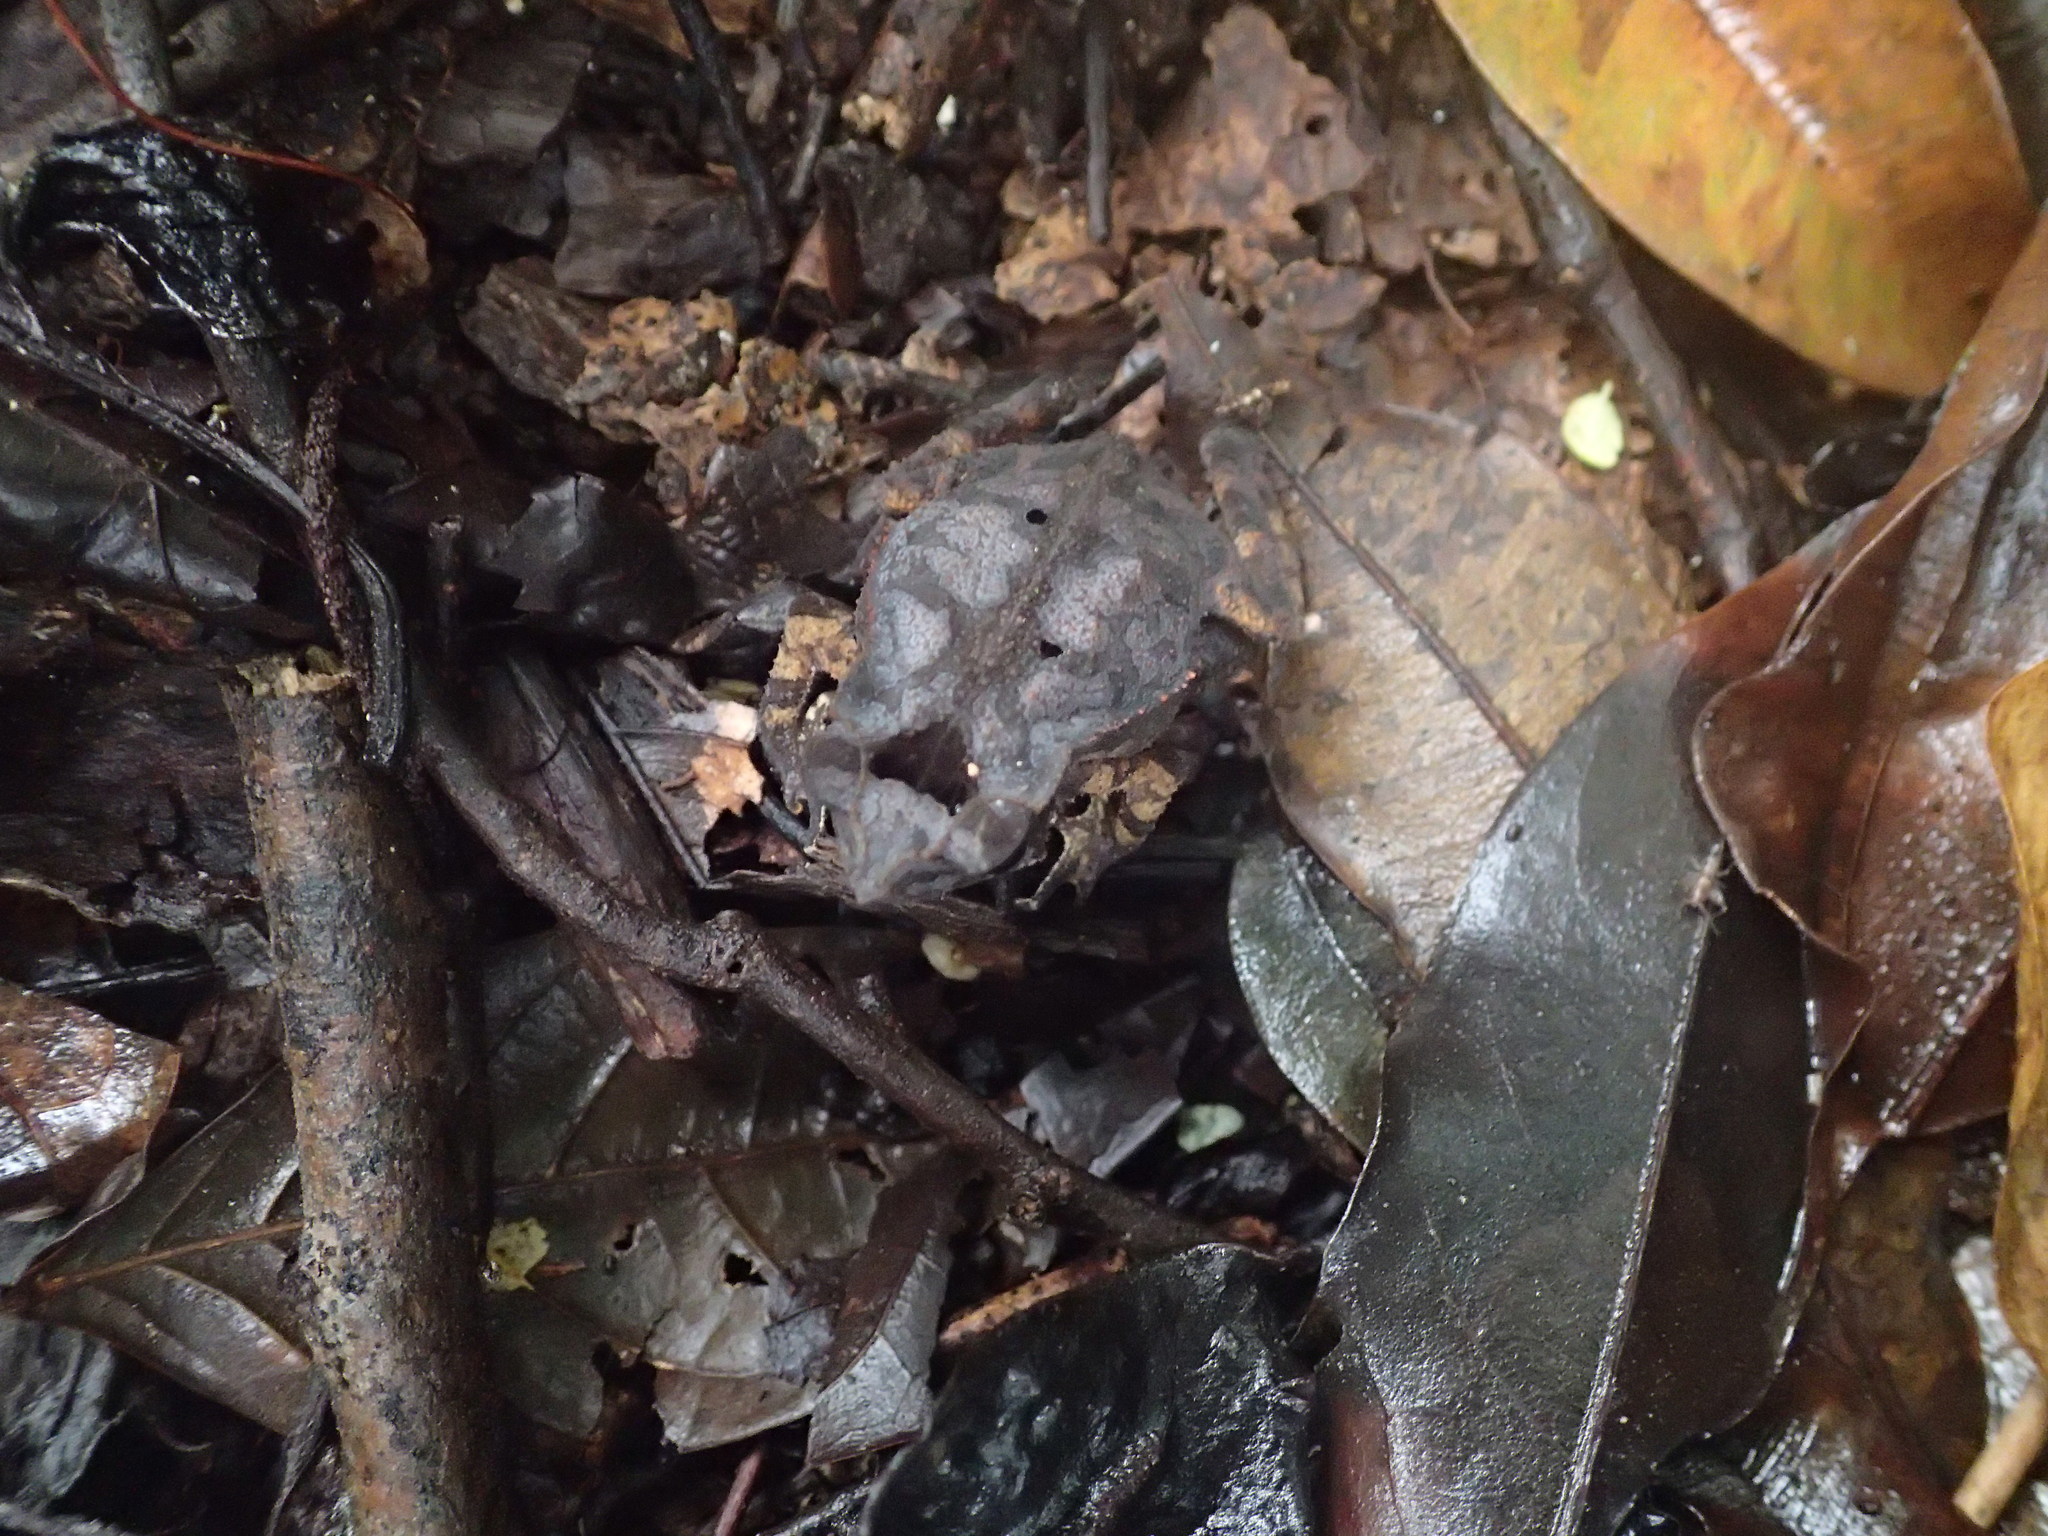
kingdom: Animalia
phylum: Chordata
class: Amphibia
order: Anura
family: Bufonidae
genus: Rhinella
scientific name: Rhinella margaritifera
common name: Mitred toad
